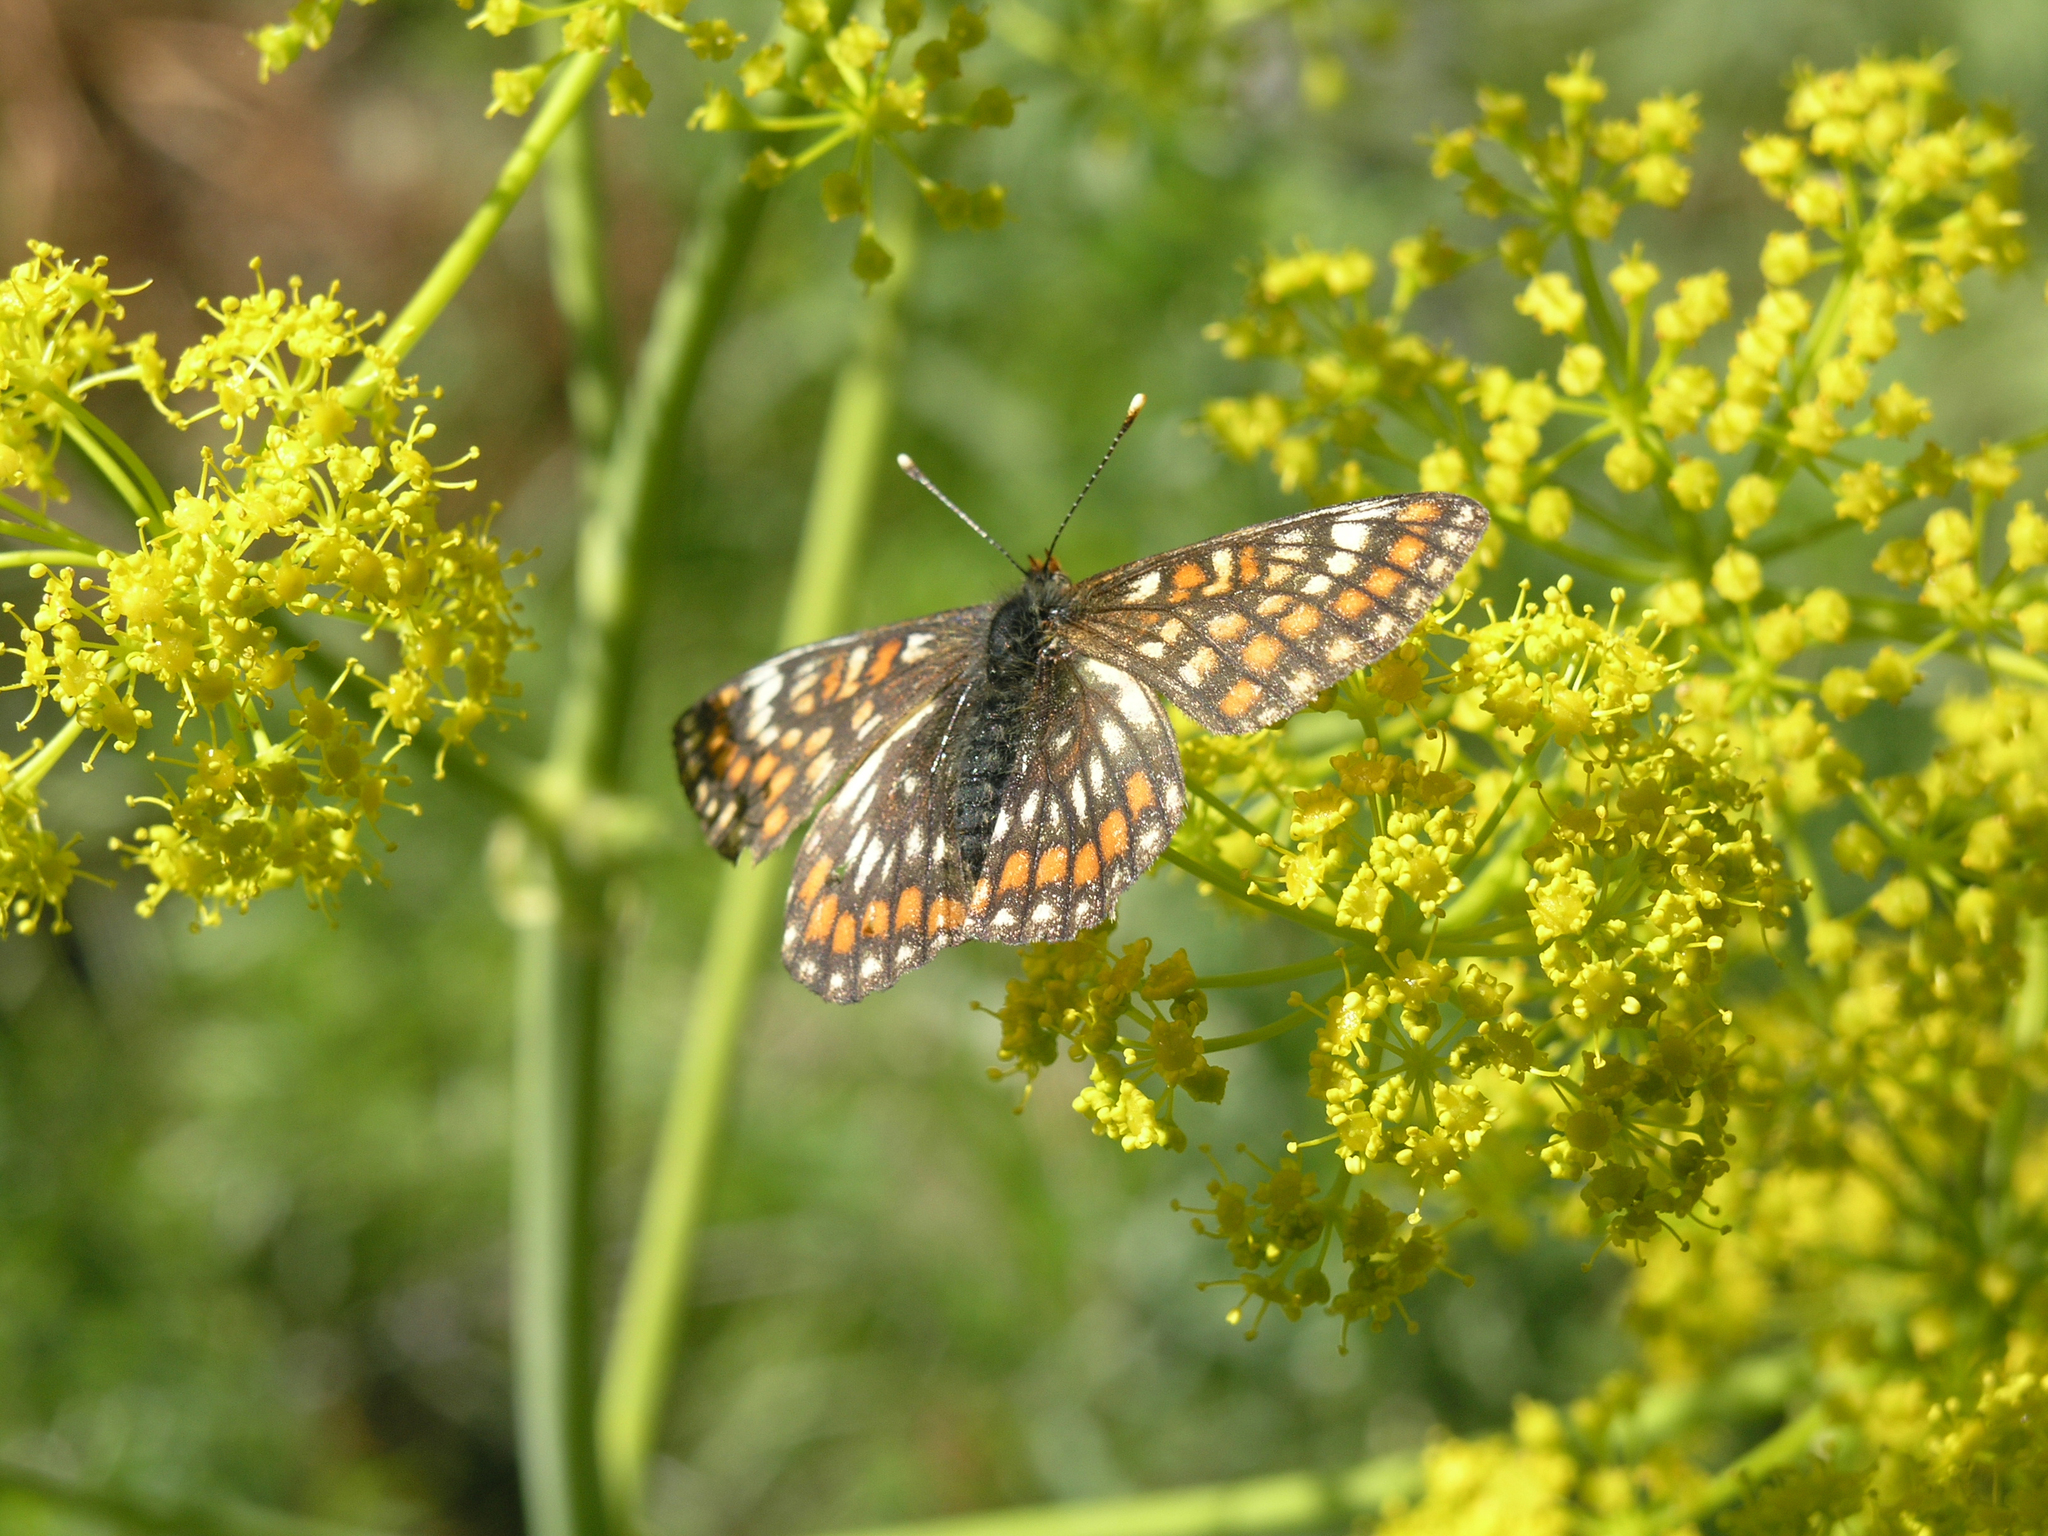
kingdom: Plantae
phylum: Tracheophyta
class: Magnoliopsida
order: Apiales
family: Apiaceae
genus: Ferula
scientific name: Ferula songarica
